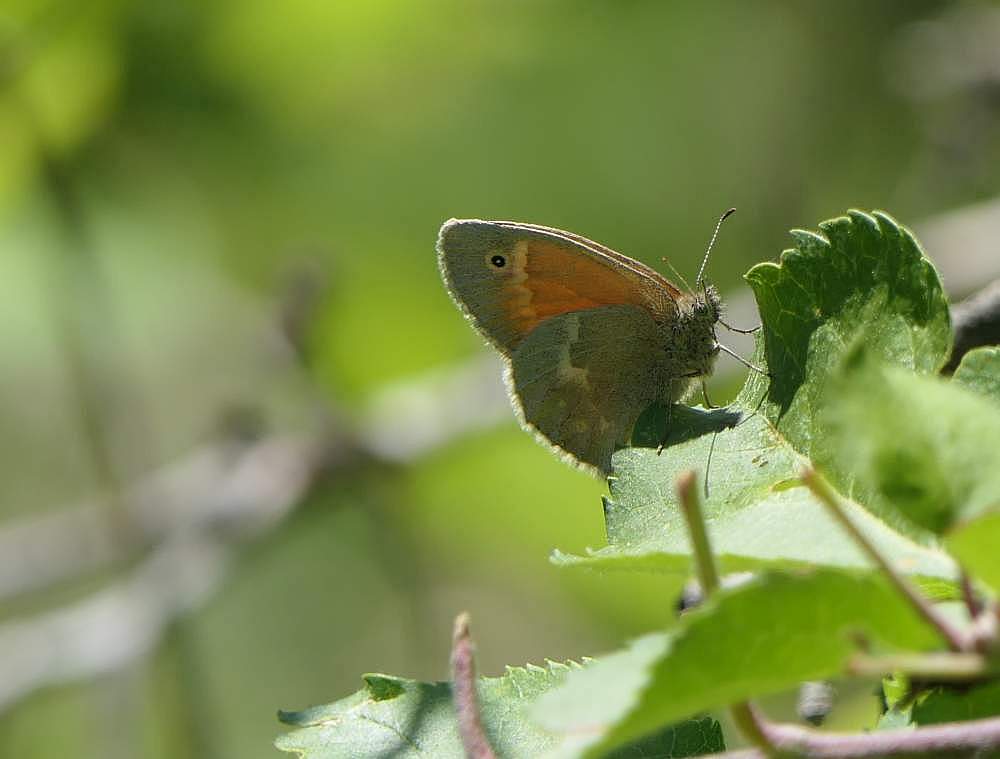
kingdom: Animalia
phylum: Arthropoda
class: Insecta
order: Lepidoptera
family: Nymphalidae
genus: Coenonympha
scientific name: Coenonympha california
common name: Common ringlet
